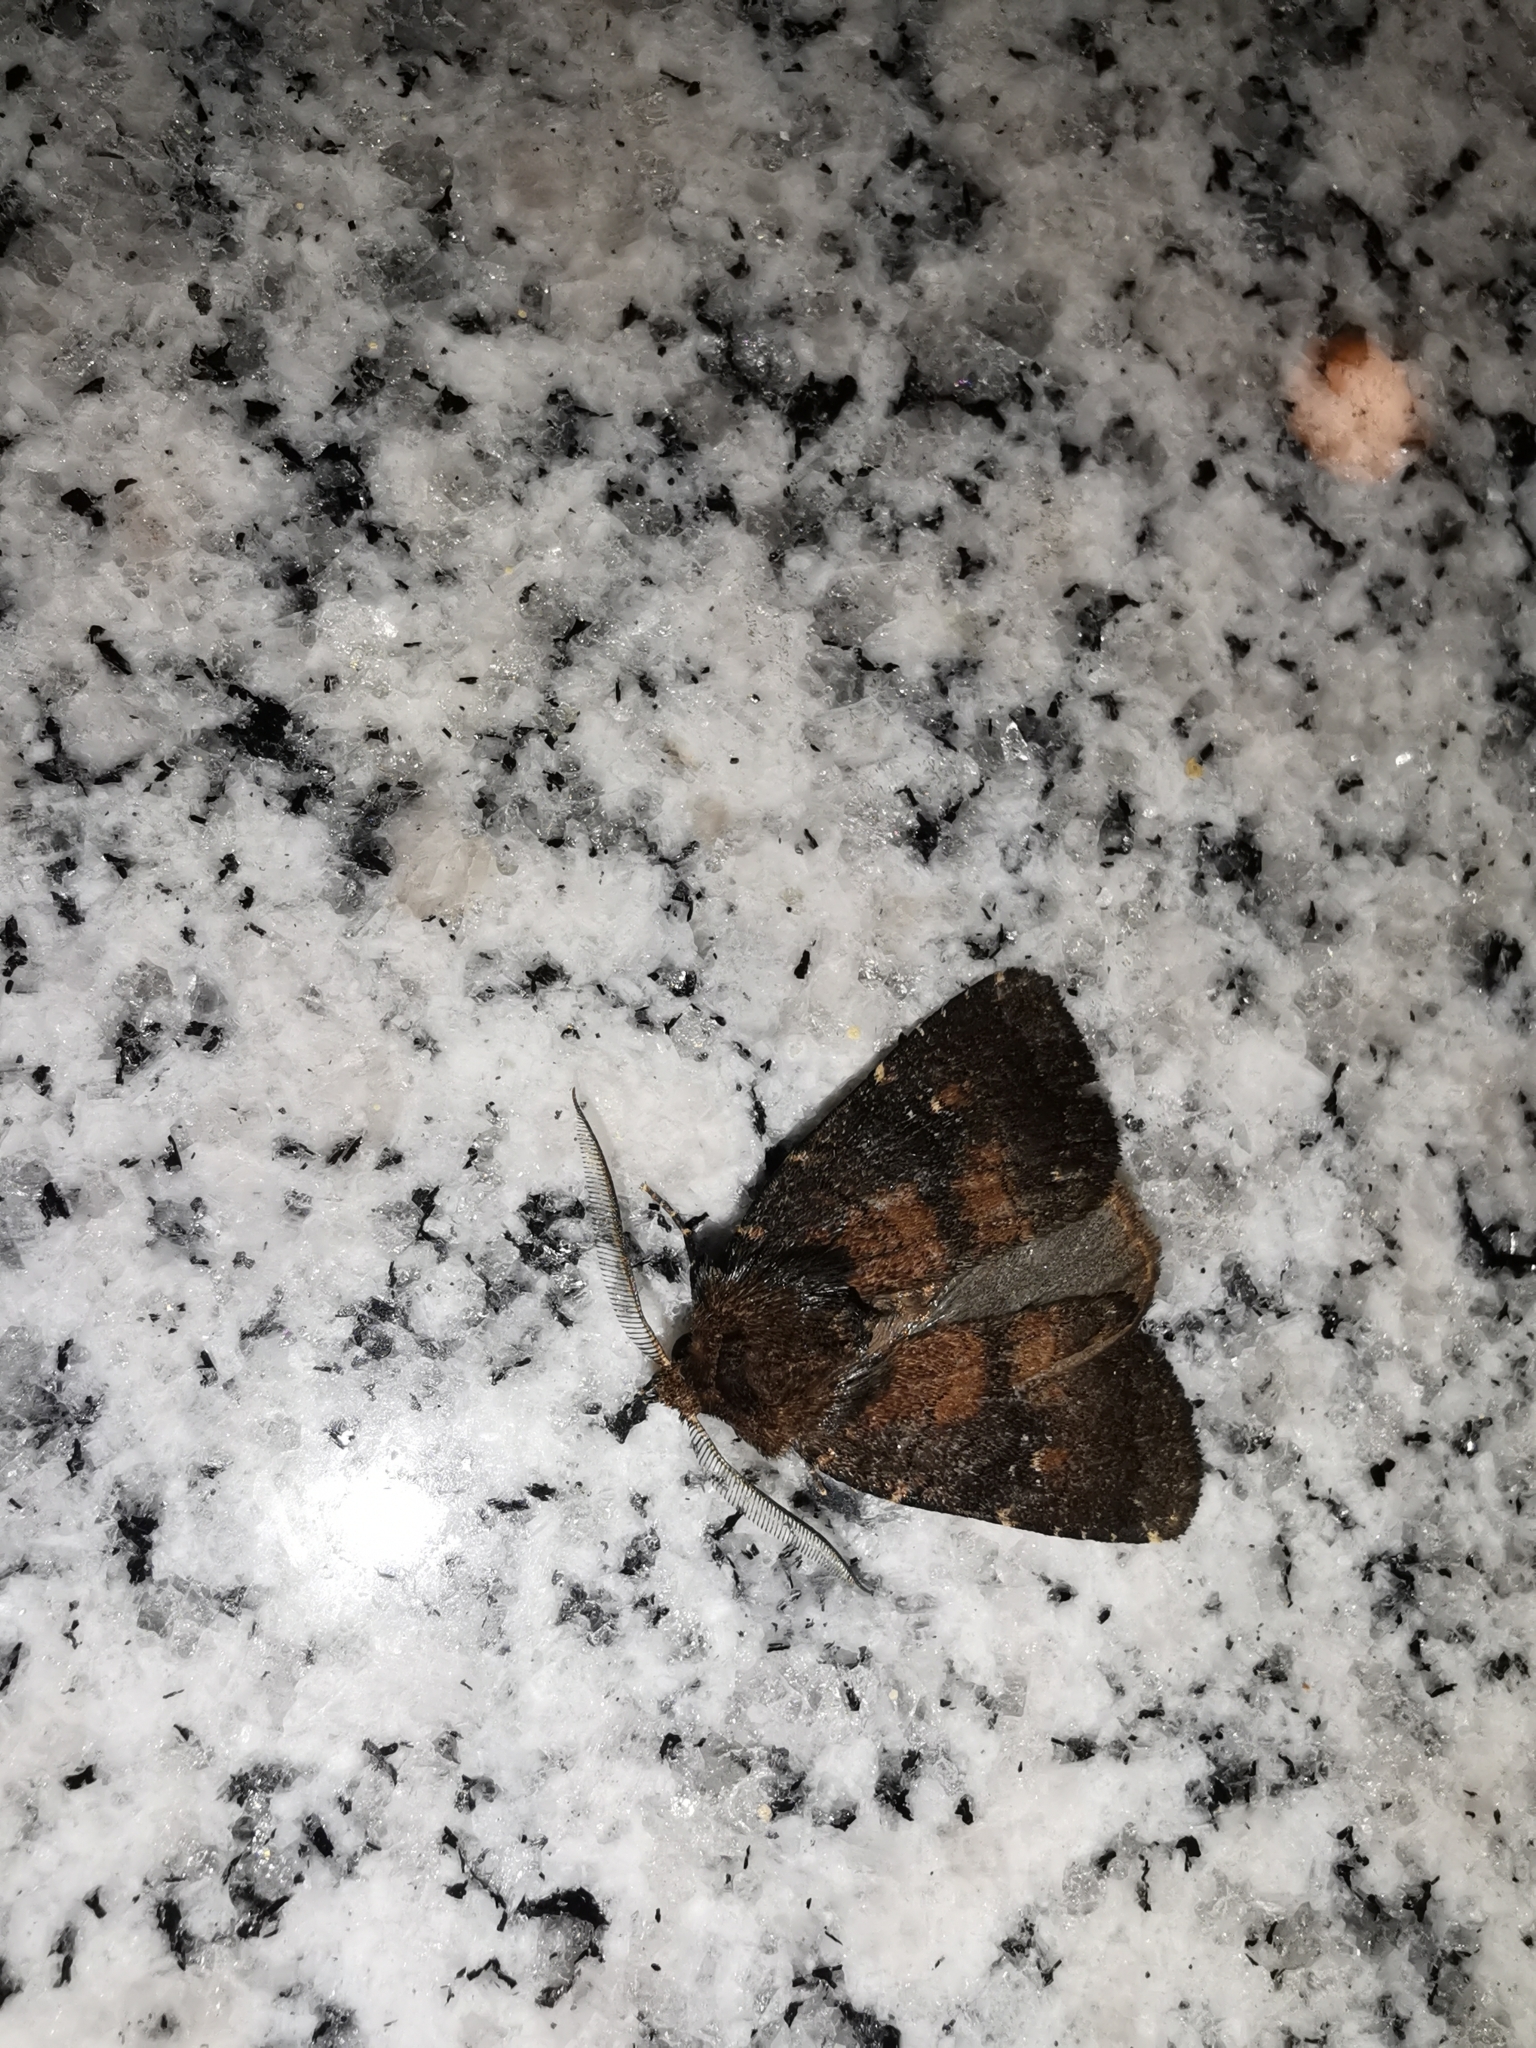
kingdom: Animalia
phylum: Arthropoda
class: Insecta
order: Lepidoptera
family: Noctuidae
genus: Charanyca
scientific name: Charanyca ferruginea
